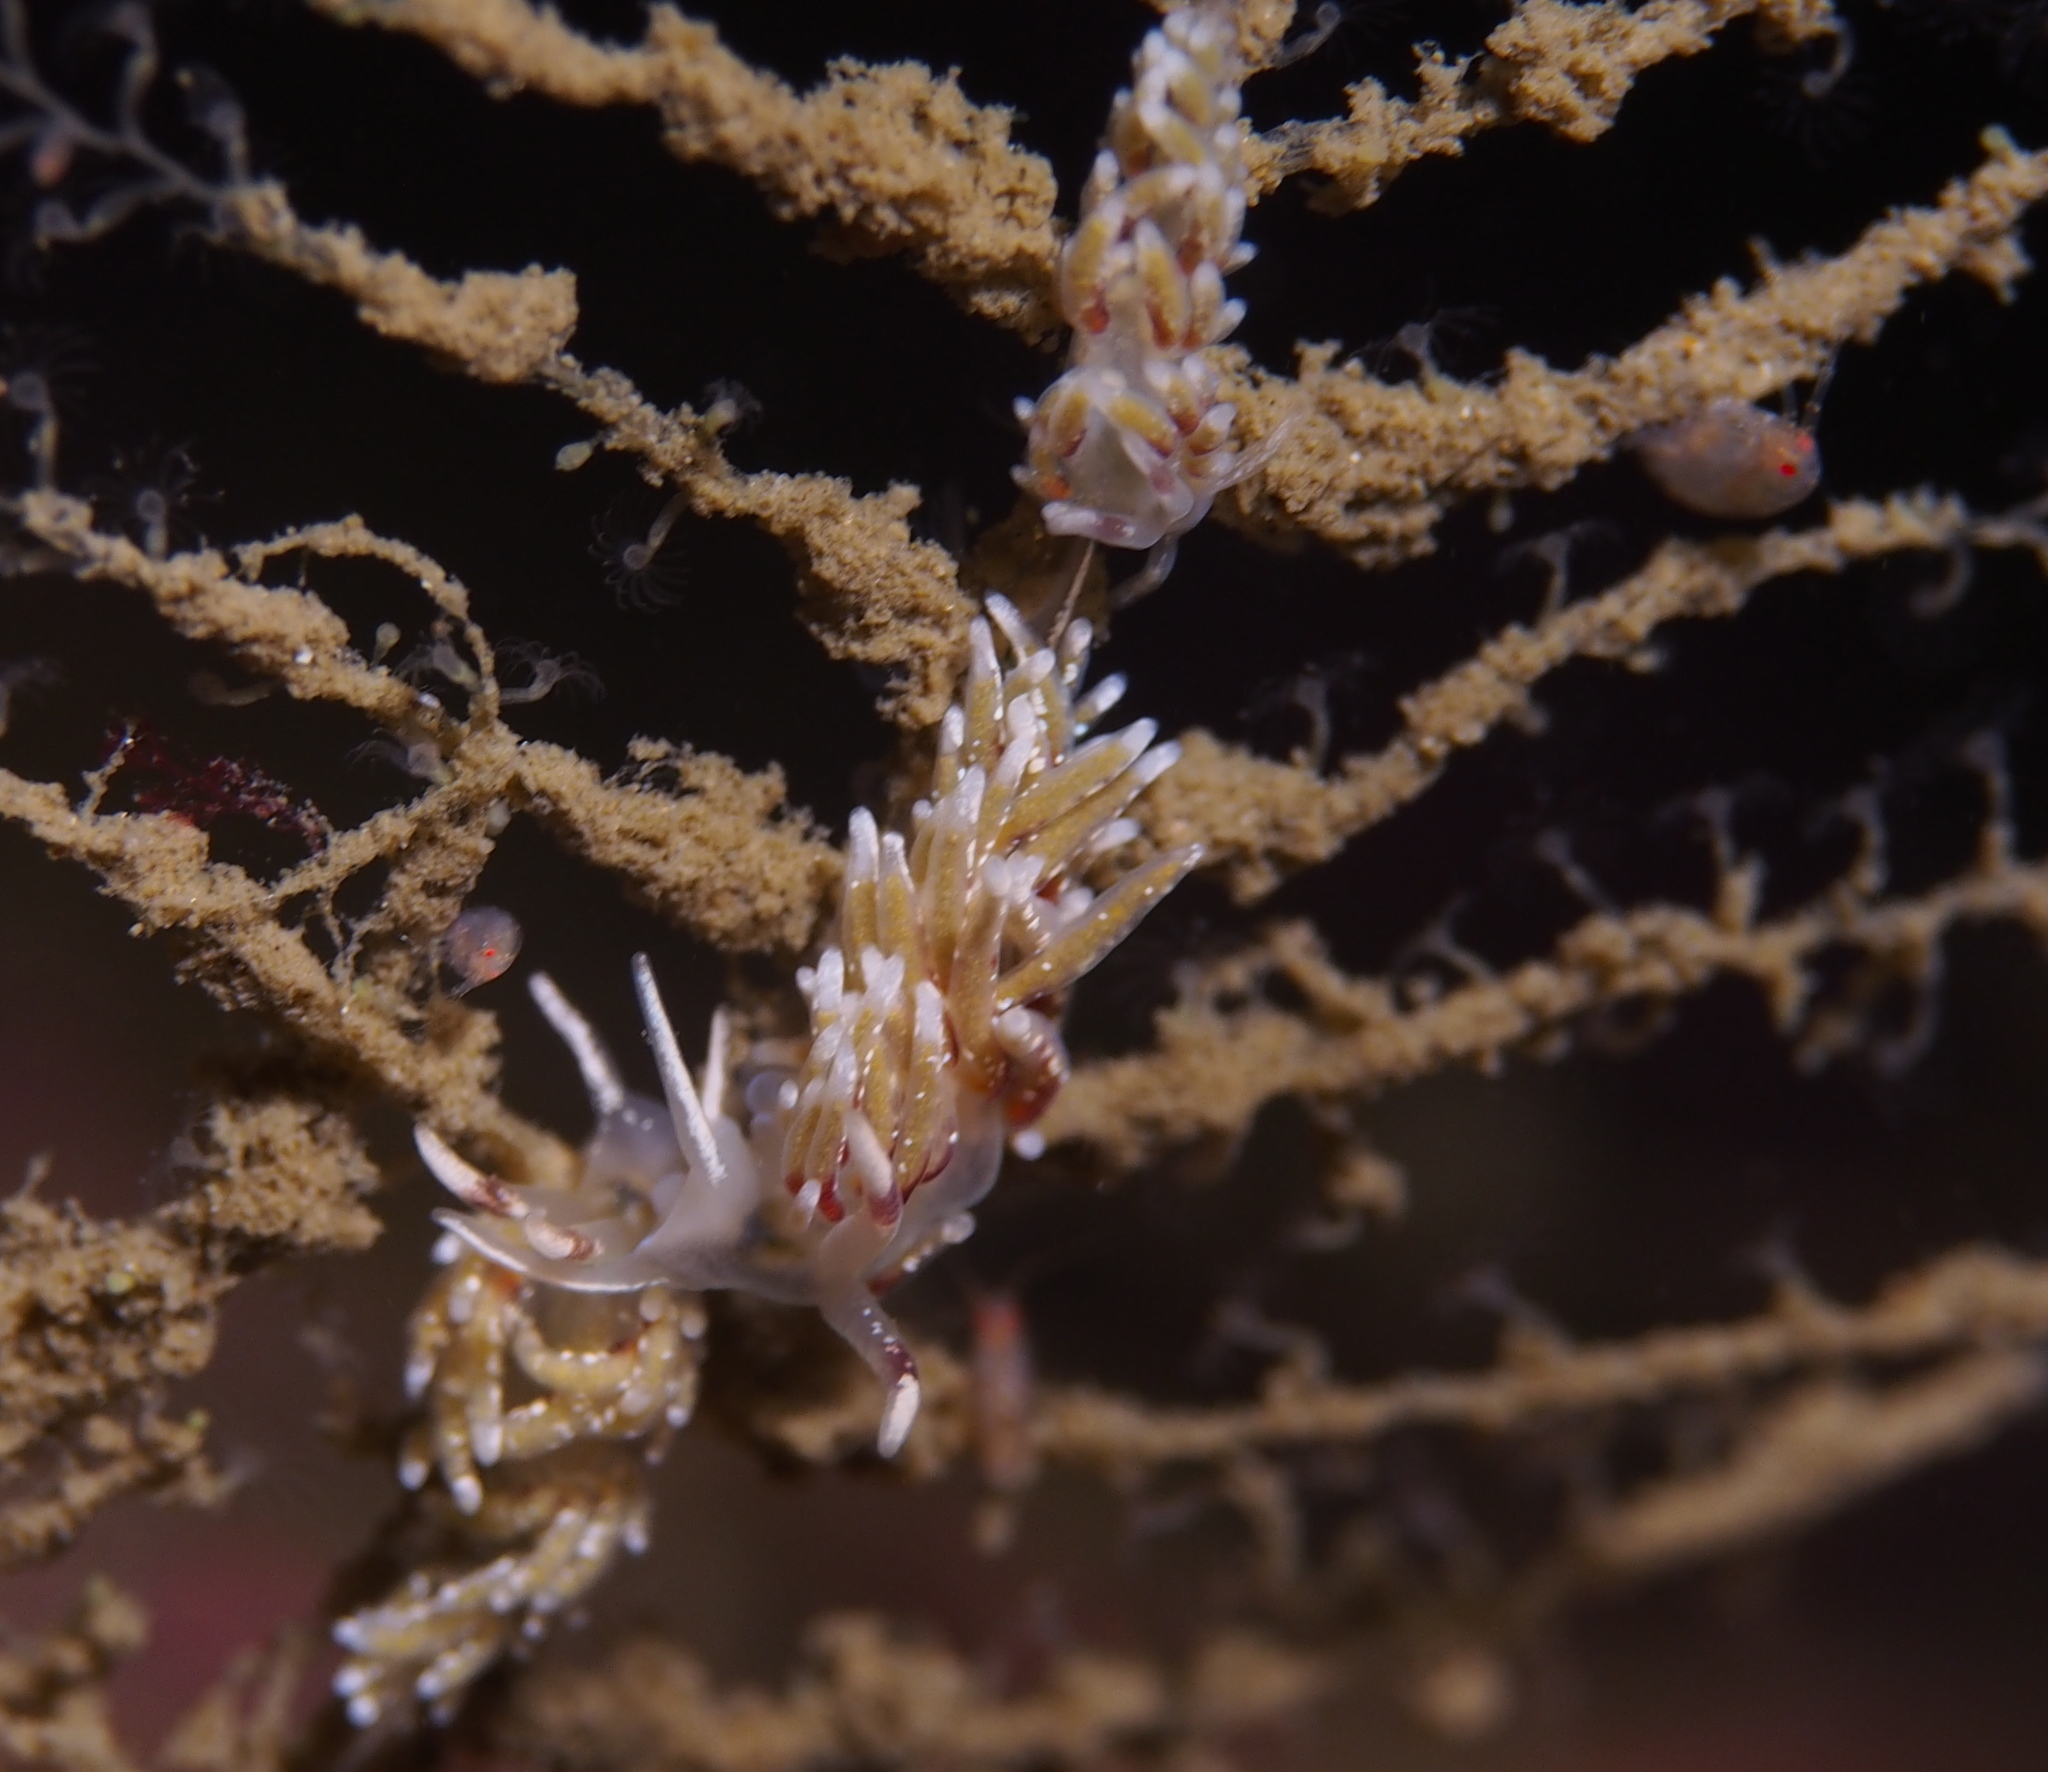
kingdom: Animalia
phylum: Mollusca
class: Gastropoda
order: Nudibranchia
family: Trinchesiidae
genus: Rubramoena
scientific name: Rubramoena rubescens
